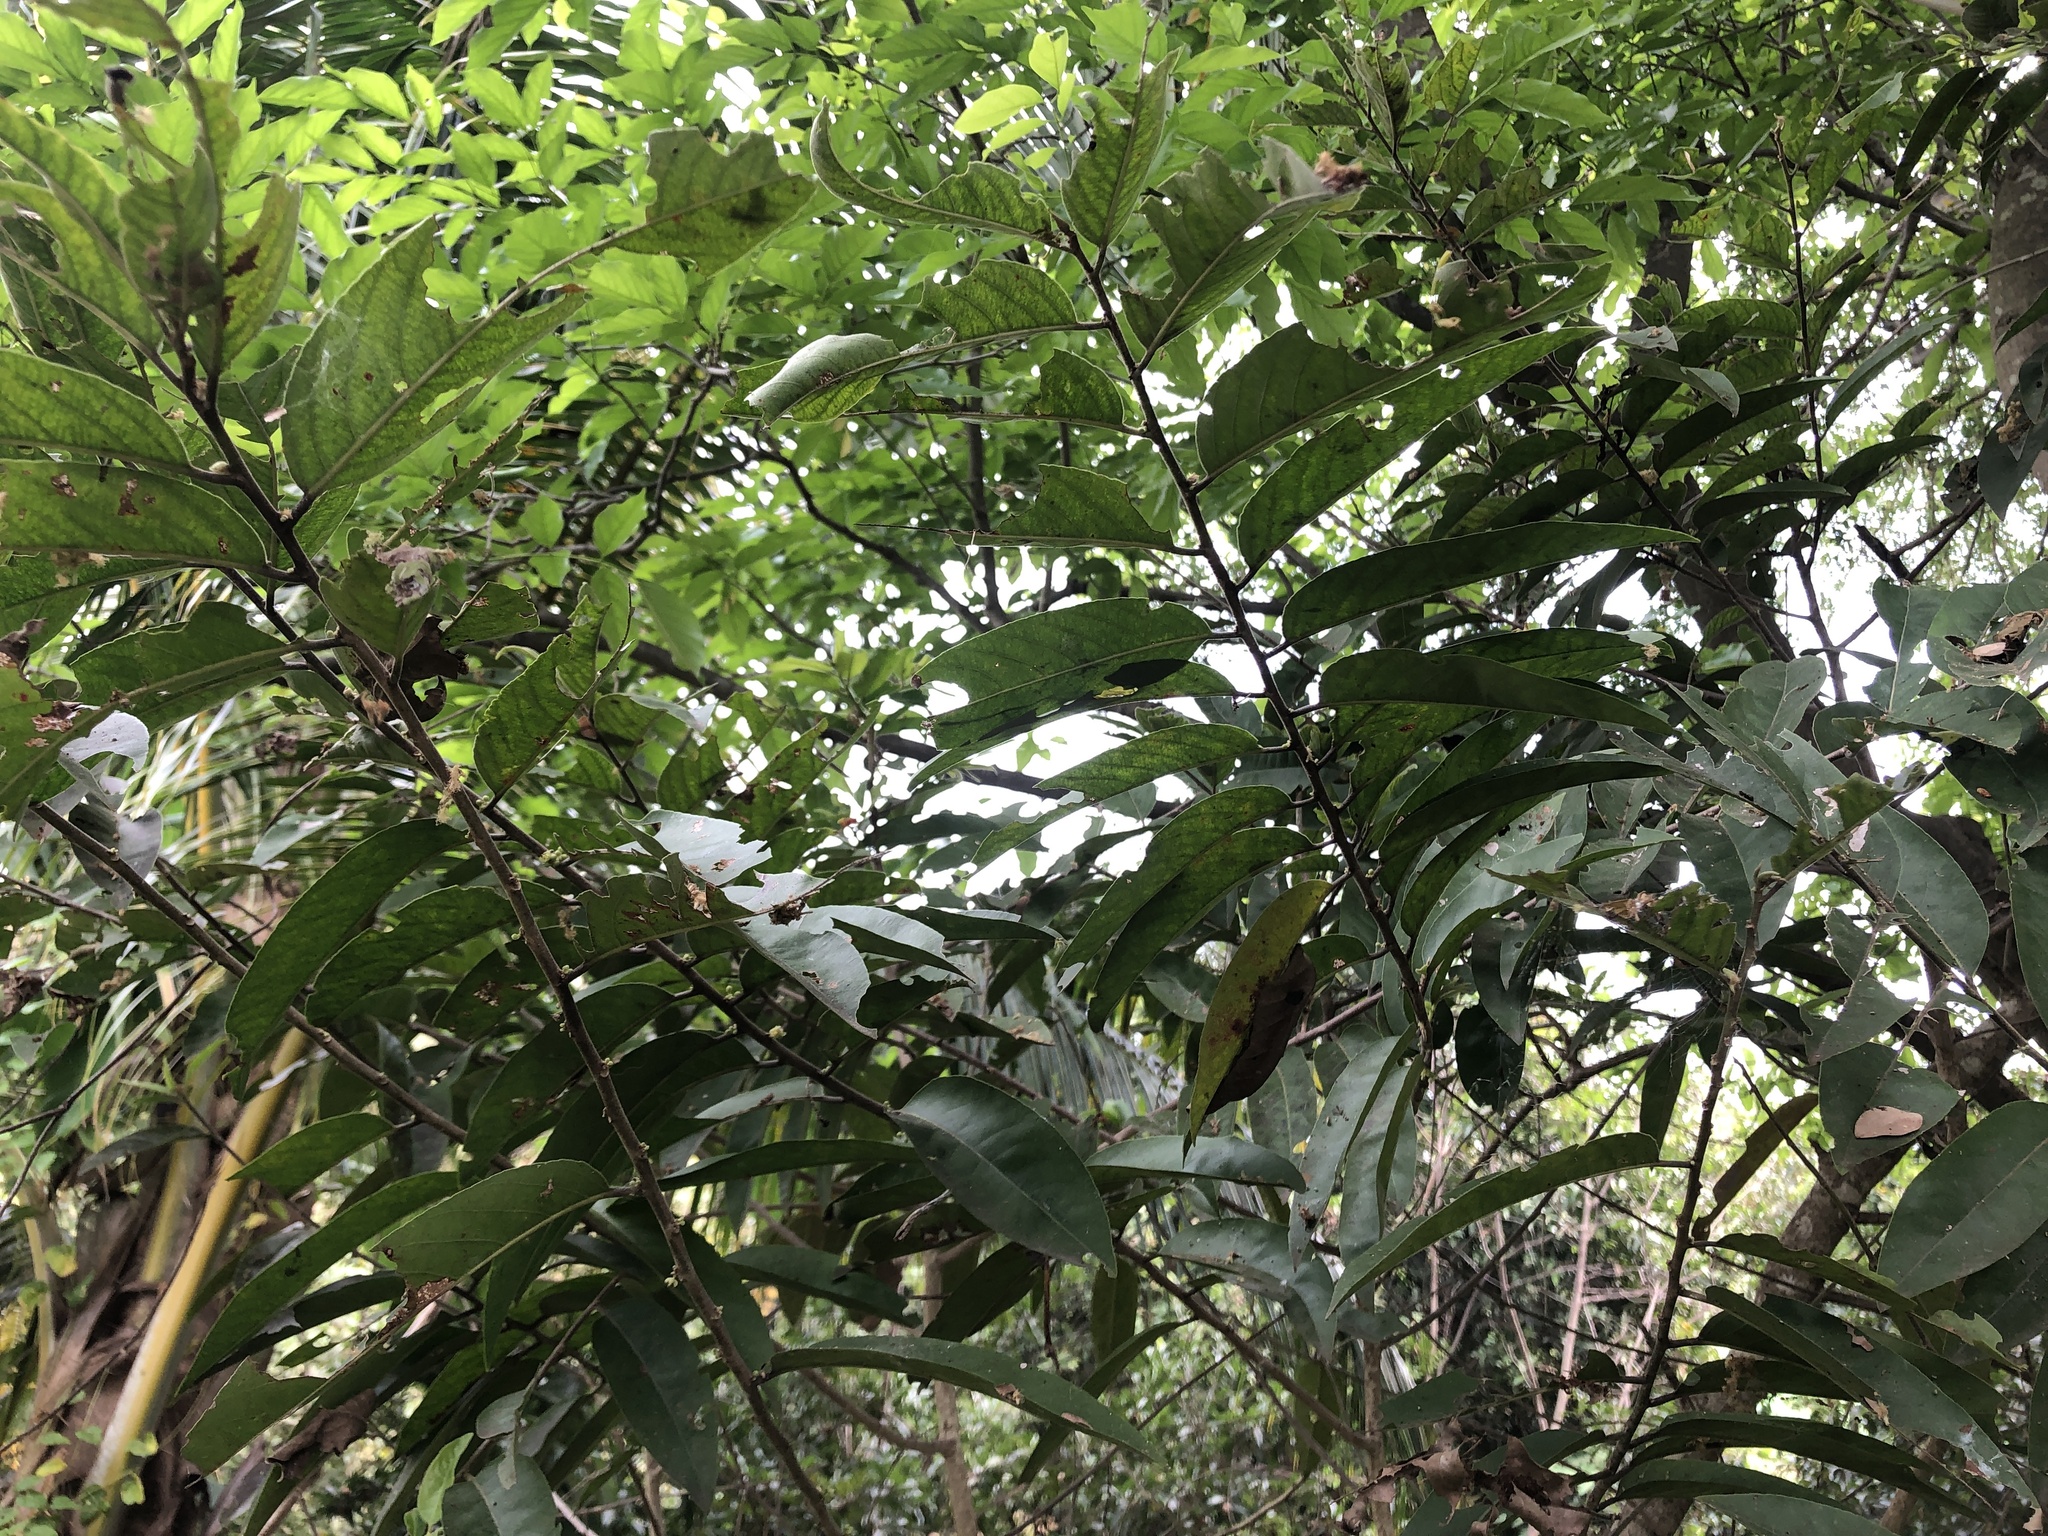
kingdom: Plantae
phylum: Tracheophyta
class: Magnoliopsida
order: Malpighiales
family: Salicaceae
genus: Casearia
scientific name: Casearia tomentosa
